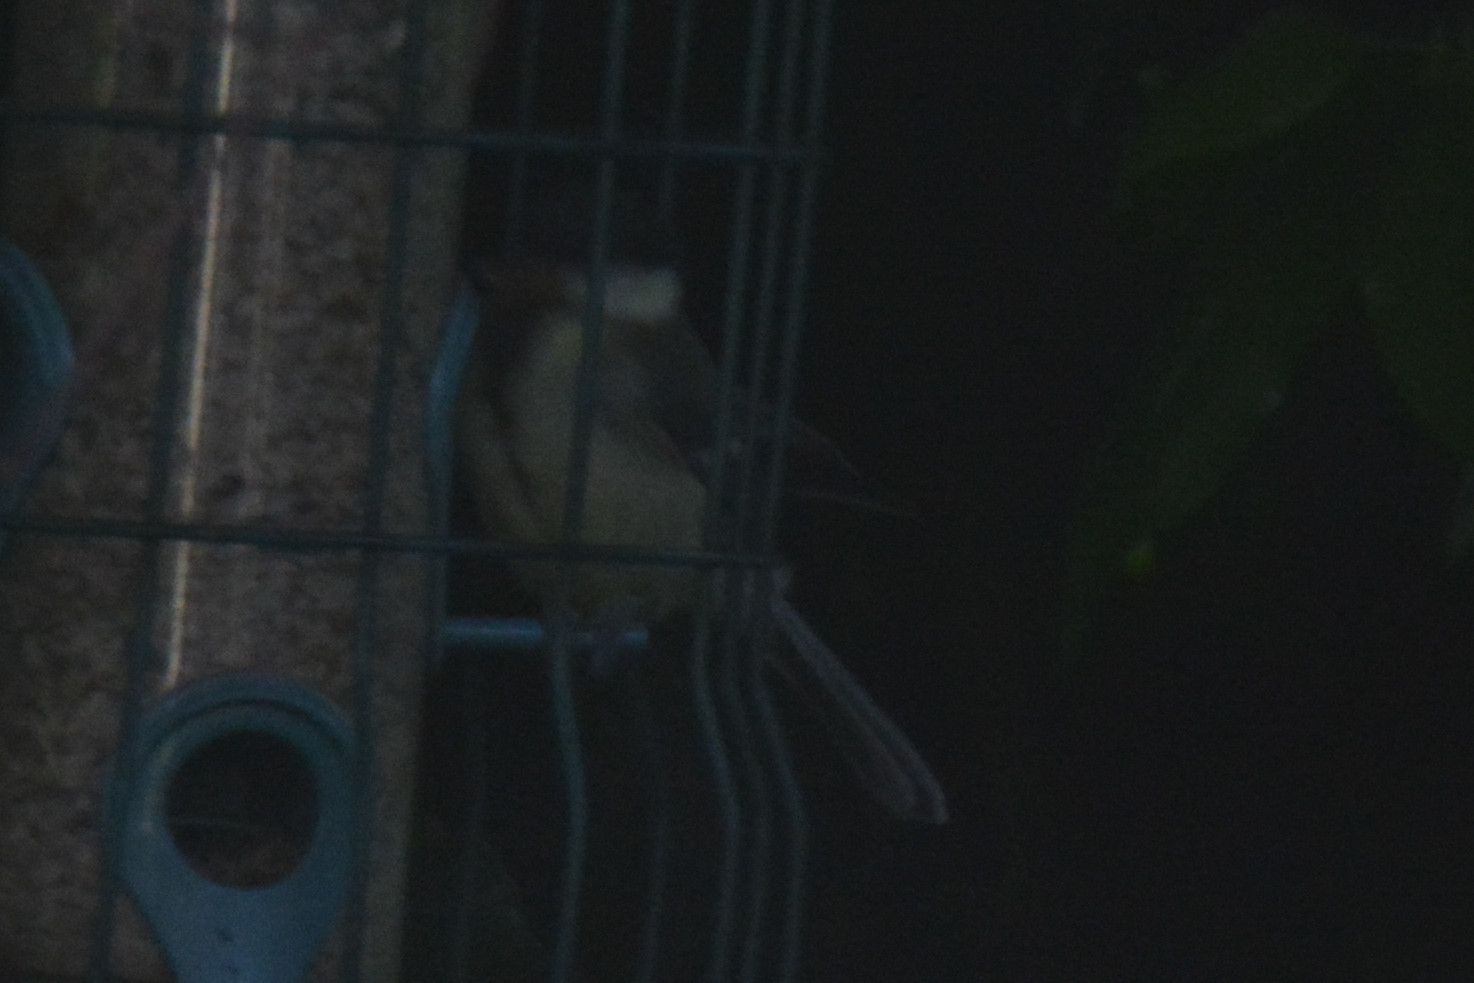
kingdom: Animalia
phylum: Chordata
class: Aves
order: Passeriformes
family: Paridae
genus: Parus
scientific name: Parus major
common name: Great tit
